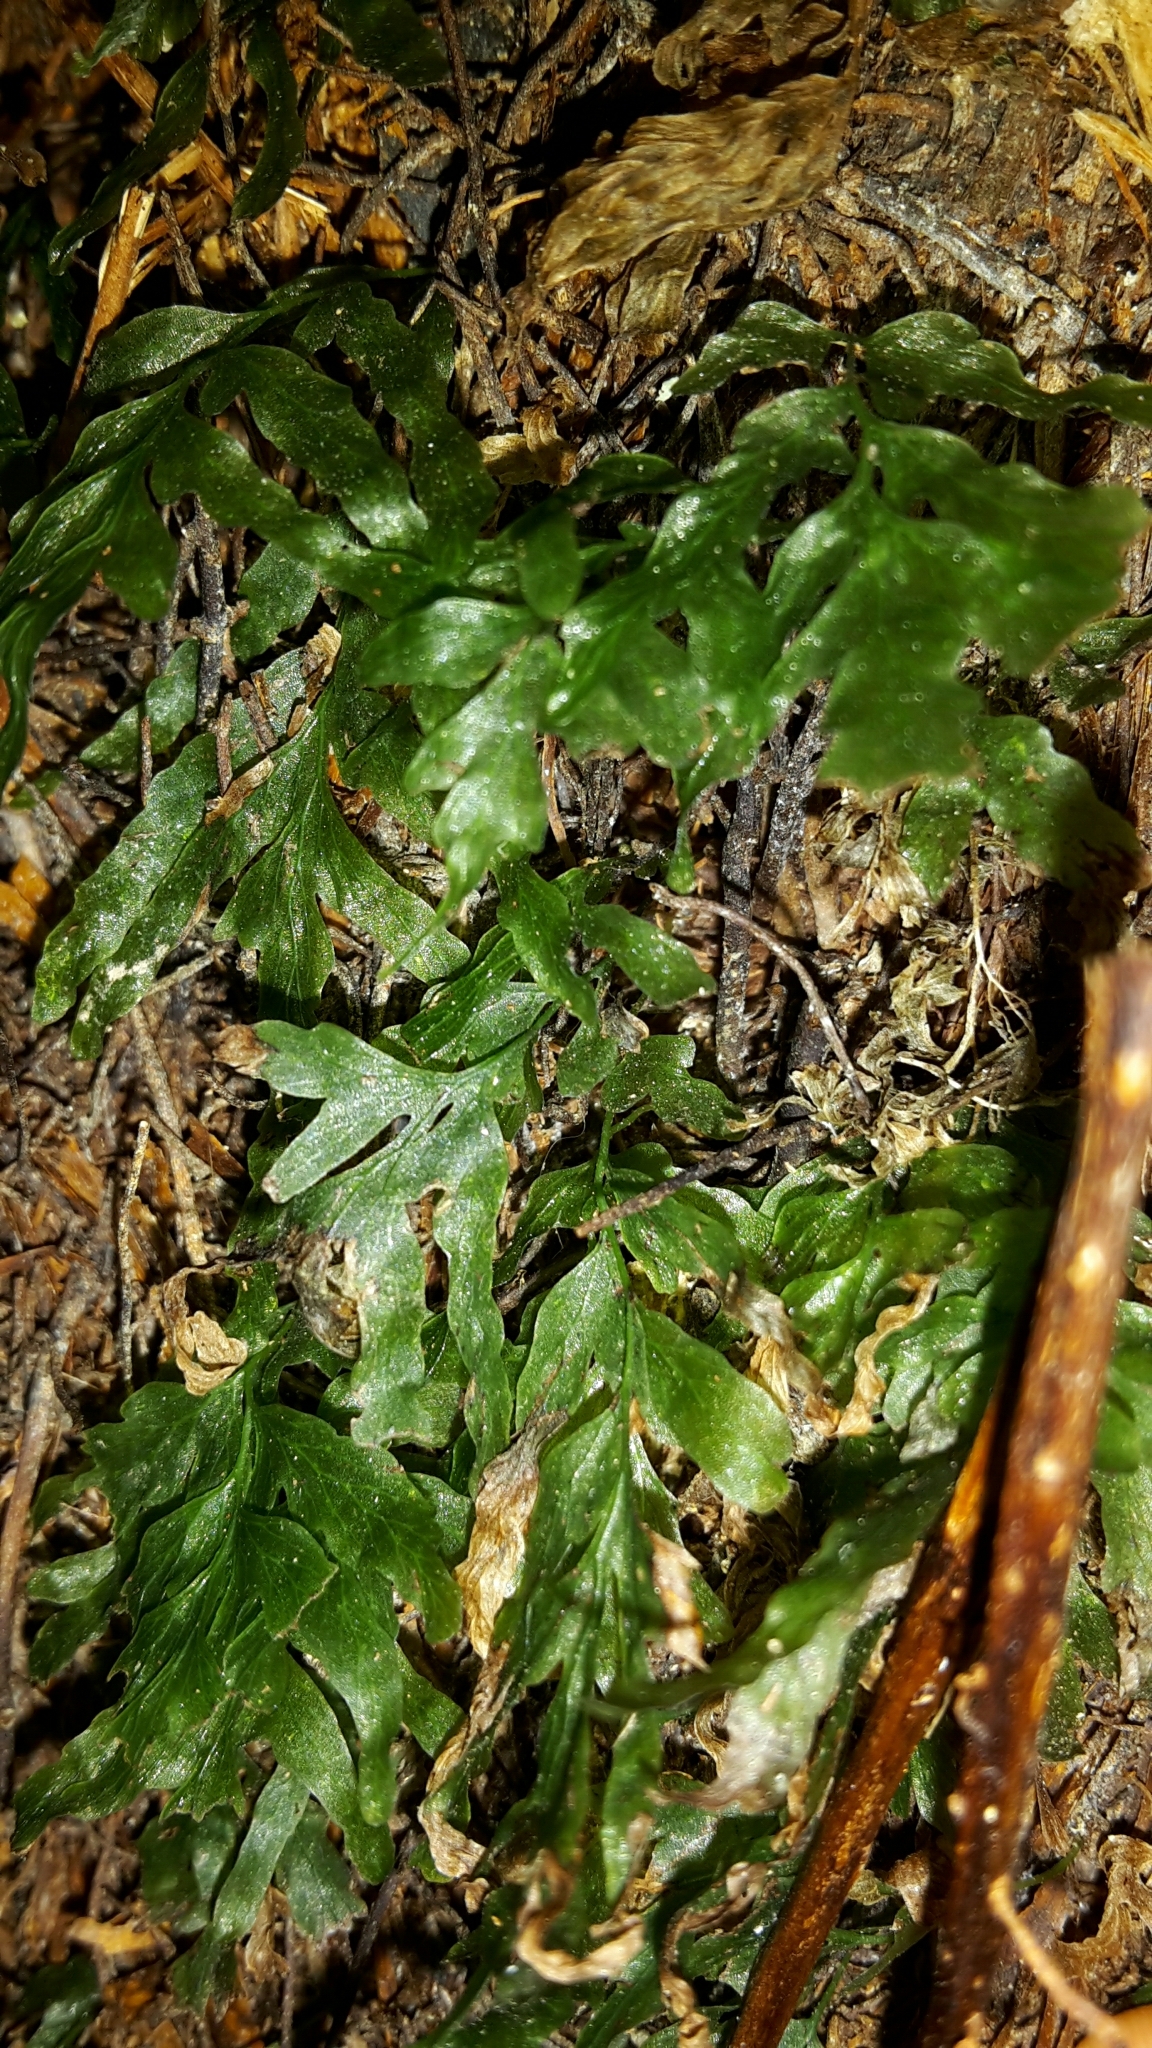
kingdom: Plantae
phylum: Tracheophyta
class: Polypodiopsida
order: Hymenophyllales
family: Hymenophyllaceae
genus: Polyphlebium
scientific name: Polyphlebium venosum
